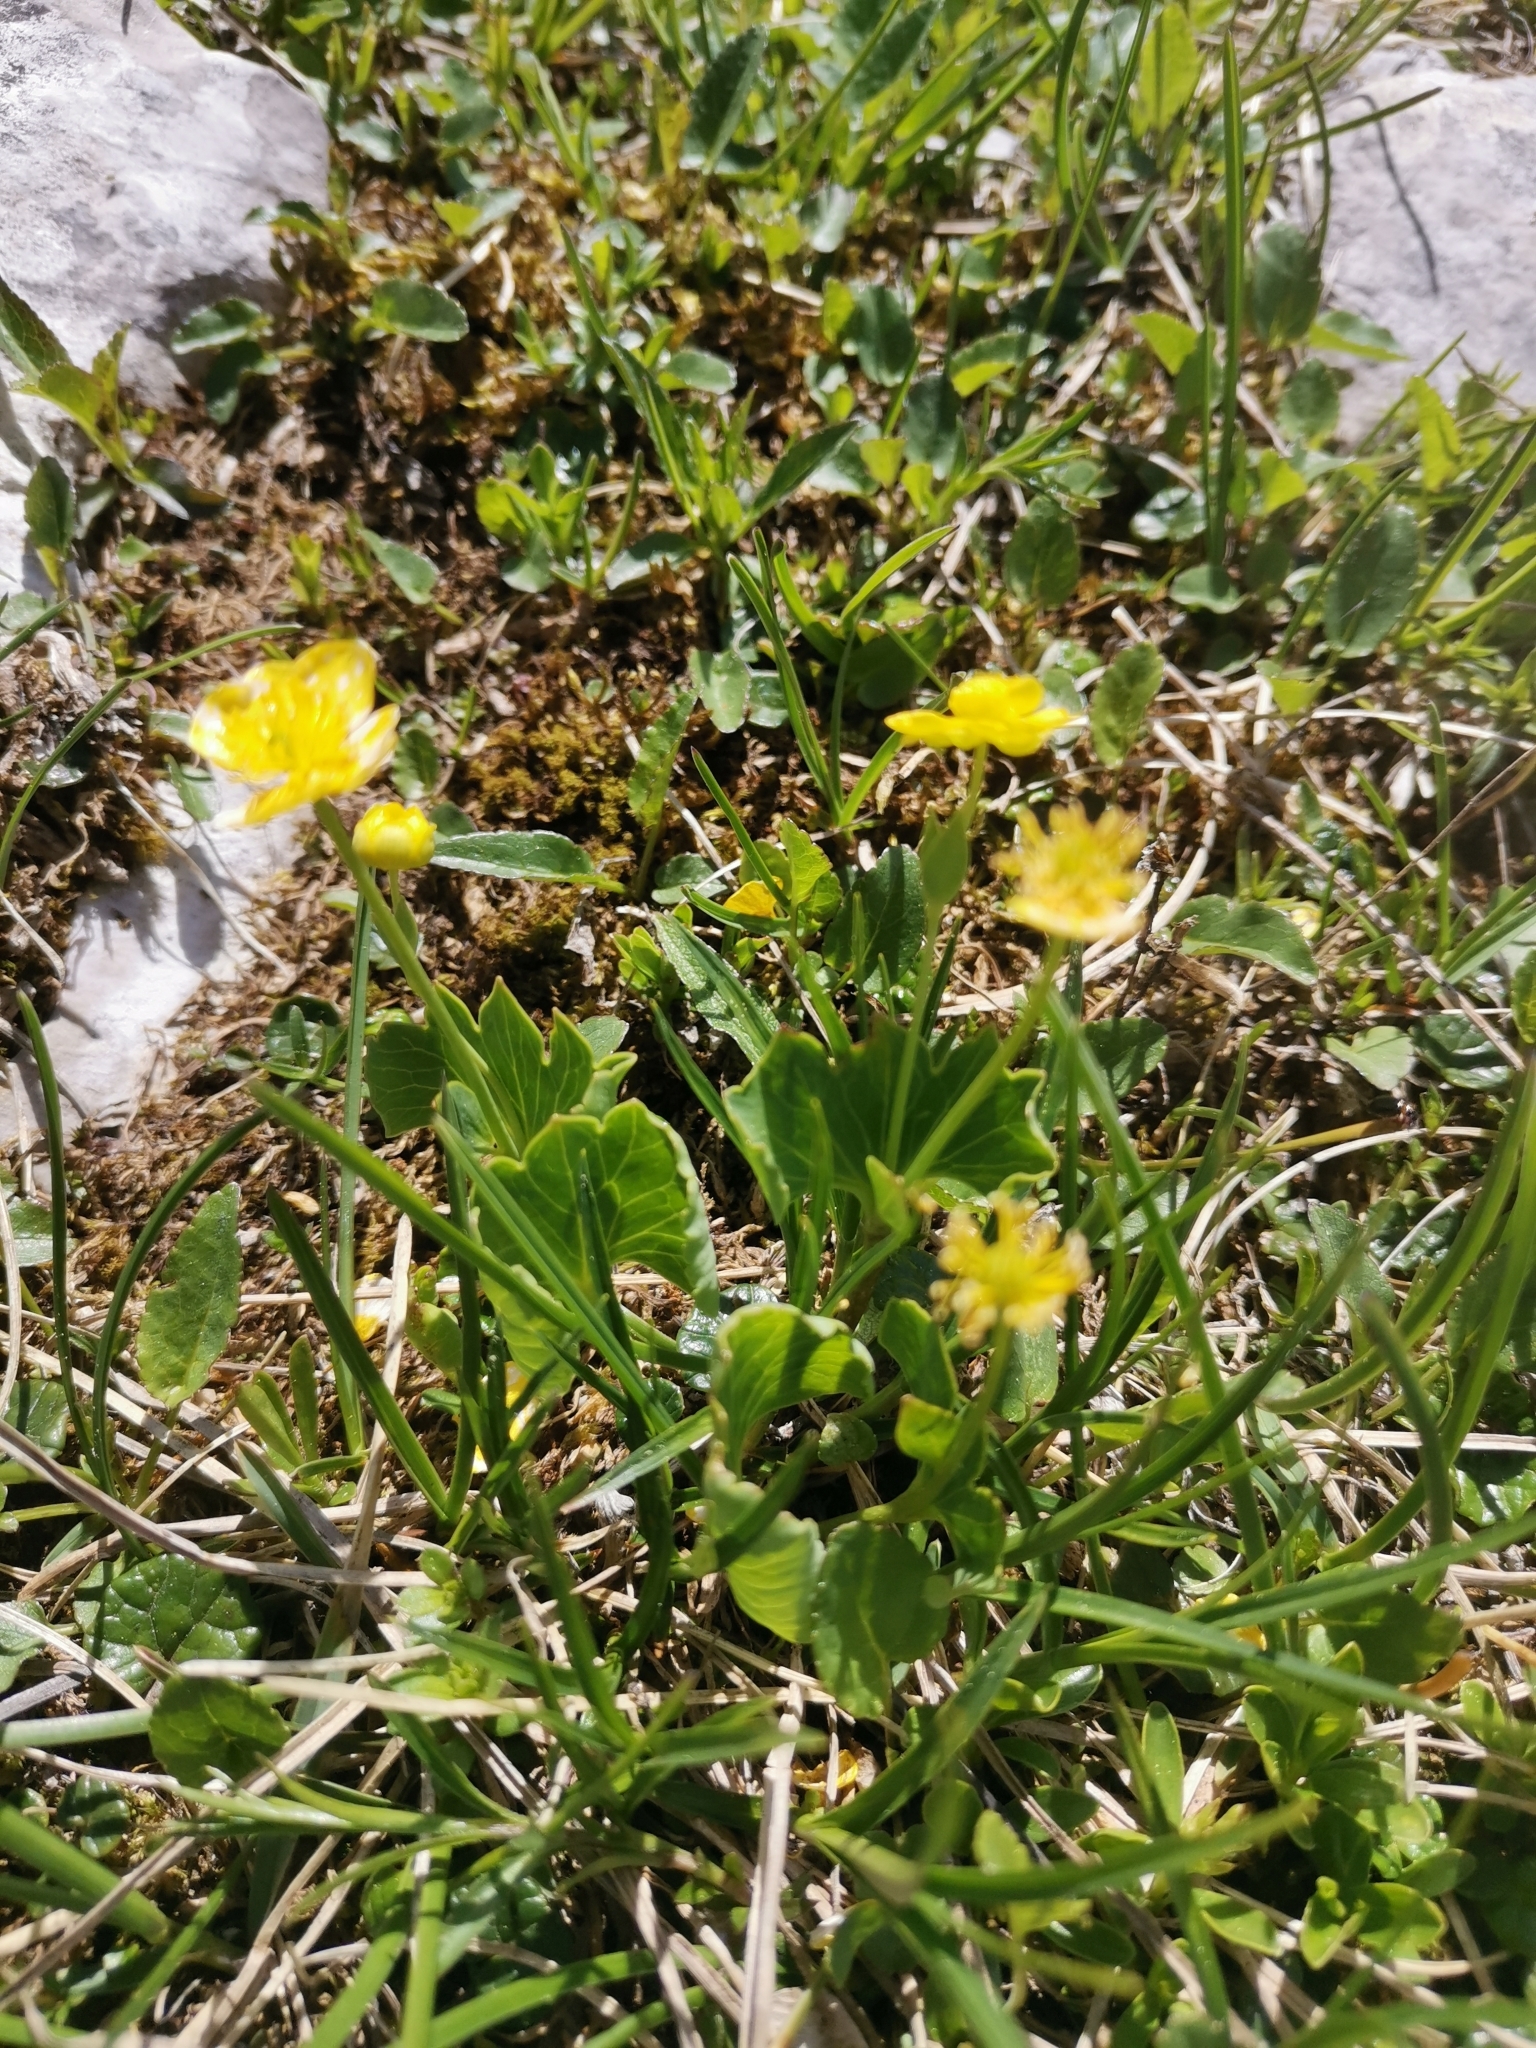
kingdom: Plantae
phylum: Tracheophyta
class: Magnoliopsida
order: Ranunculales
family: Ranunculaceae
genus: Ranunculus
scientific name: Ranunculus hybridus
